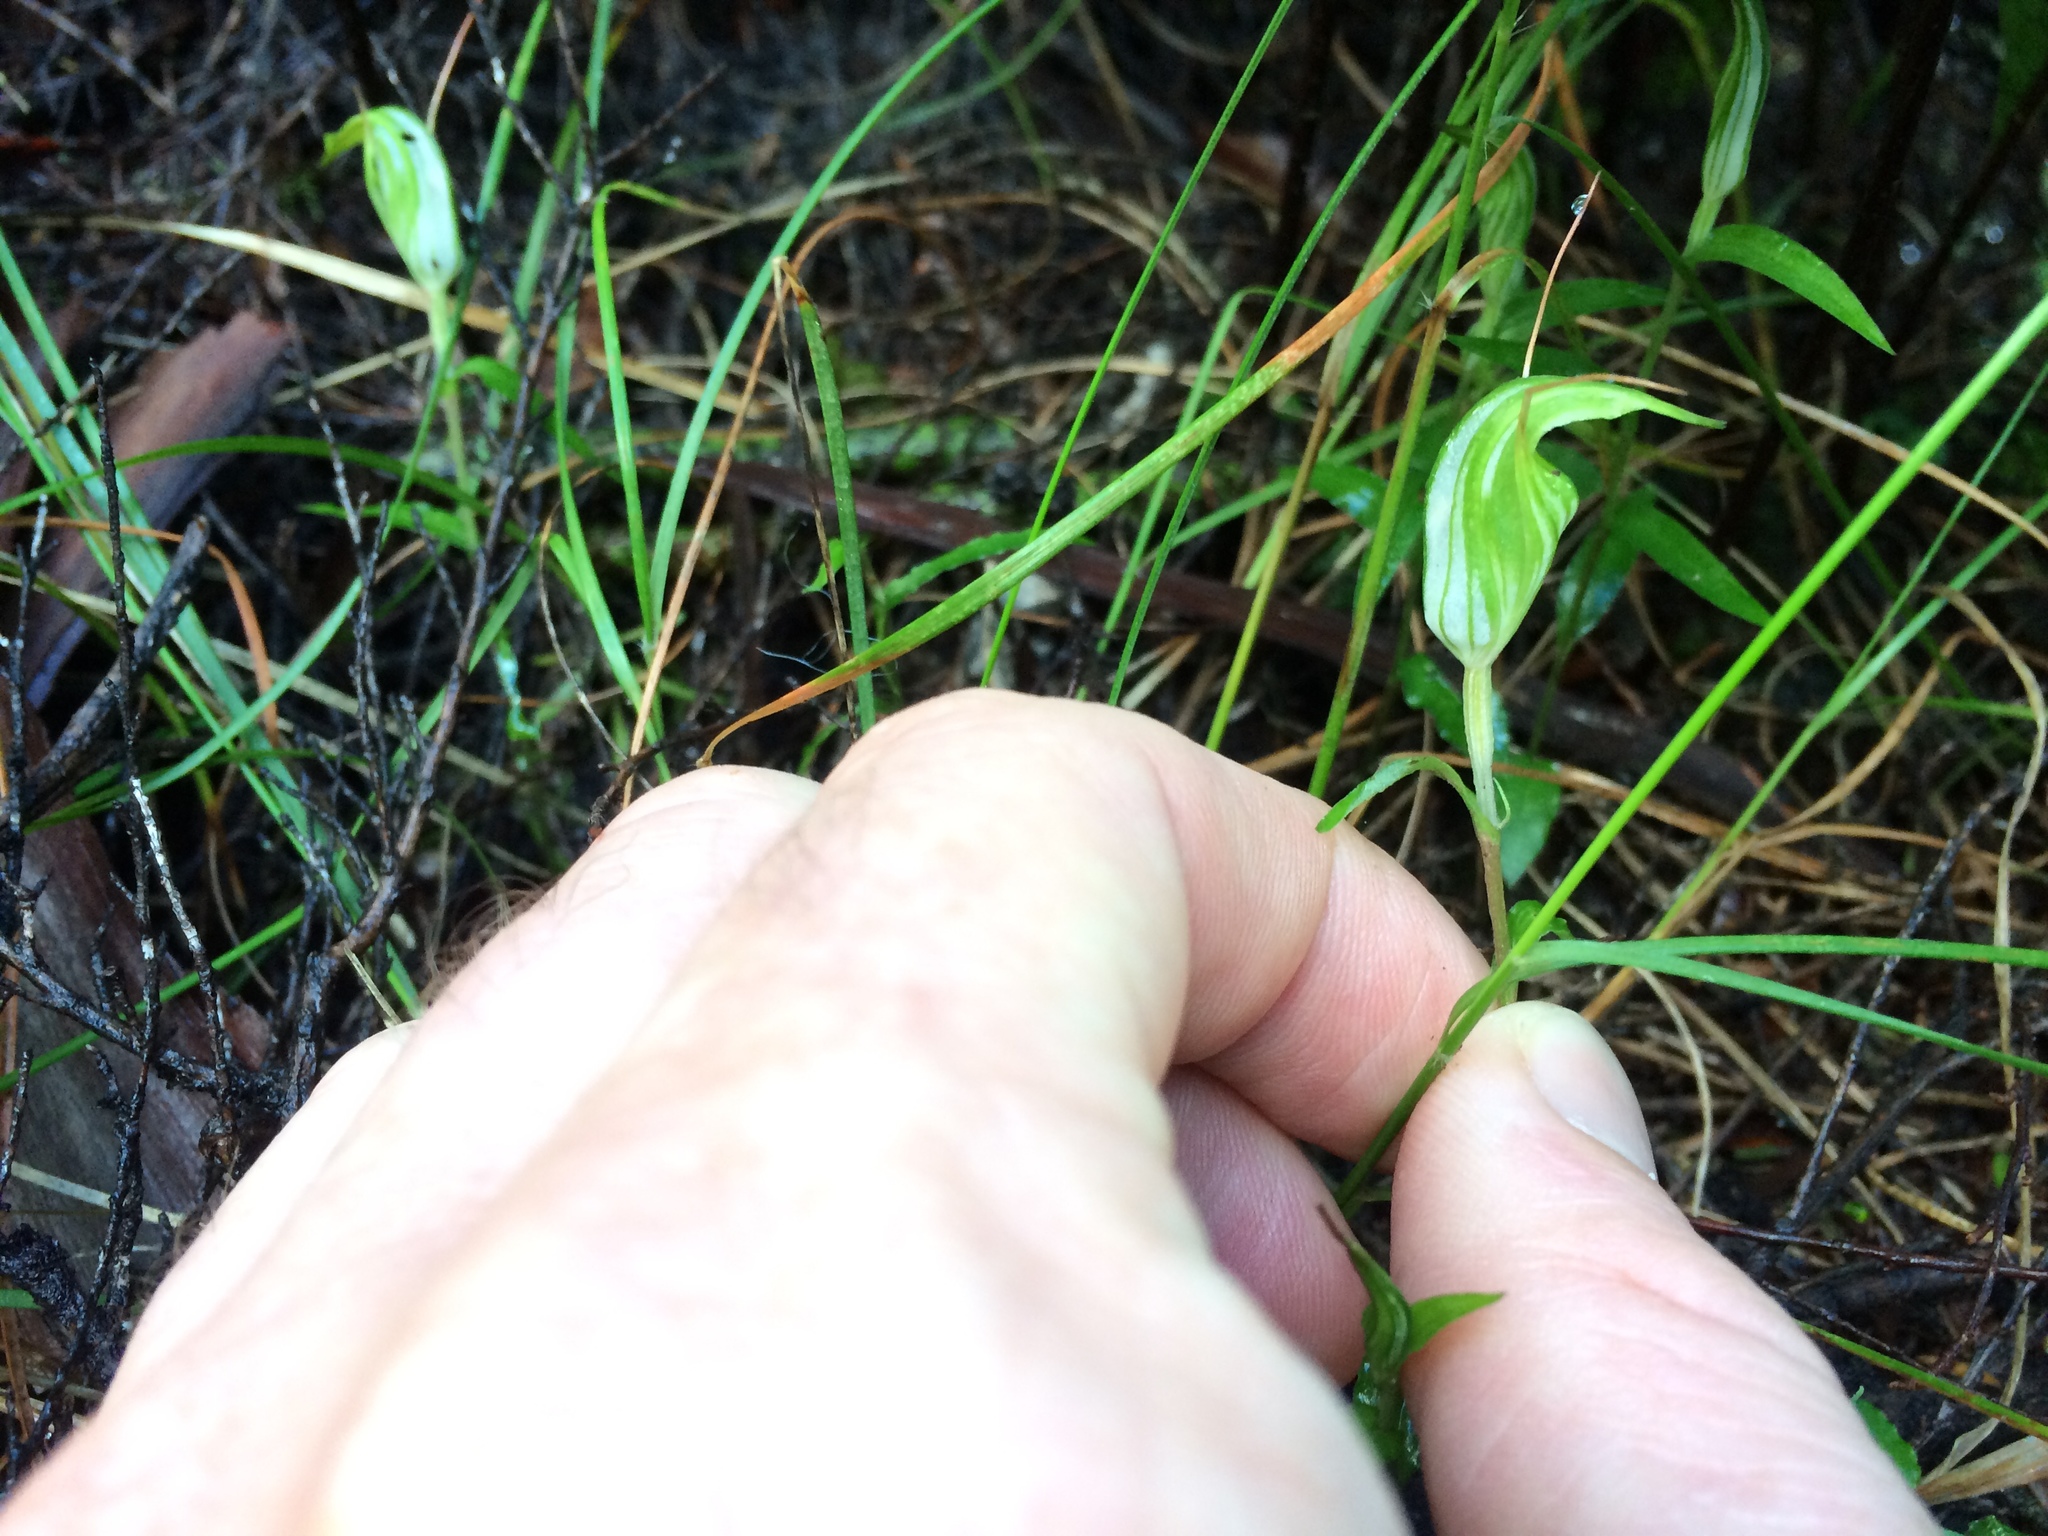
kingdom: Plantae
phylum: Tracheophyta
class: Liliopsida
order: Asparagales
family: Orchidaceae
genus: Pterostylis
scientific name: Pterostylis alobula
